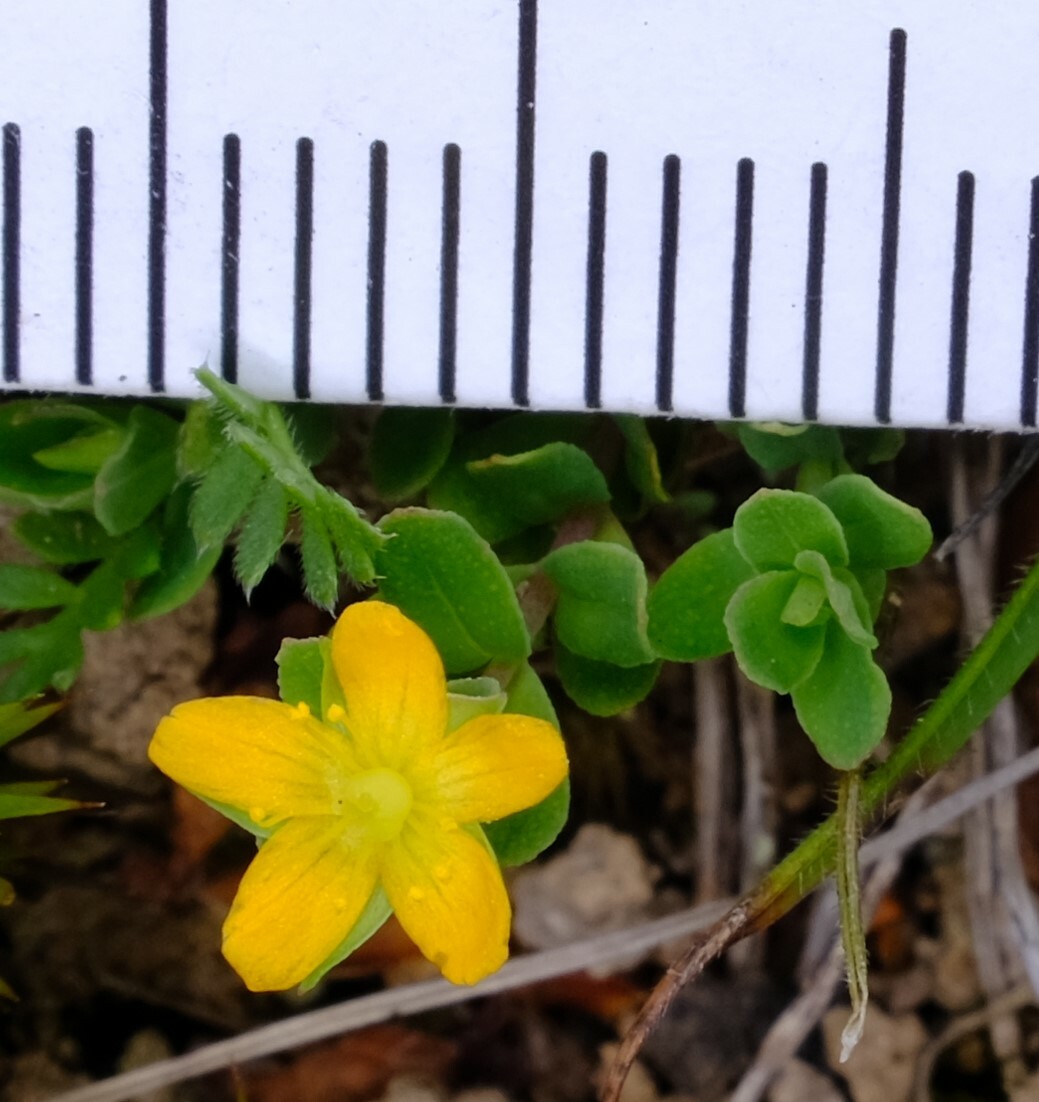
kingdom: Plantae
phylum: Tracheophyta
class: Magnoliopsida
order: Malpighiales
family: Hypericaceae
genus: Hypericum
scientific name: Hypericum japonicum
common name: Matted st. john's-wort
